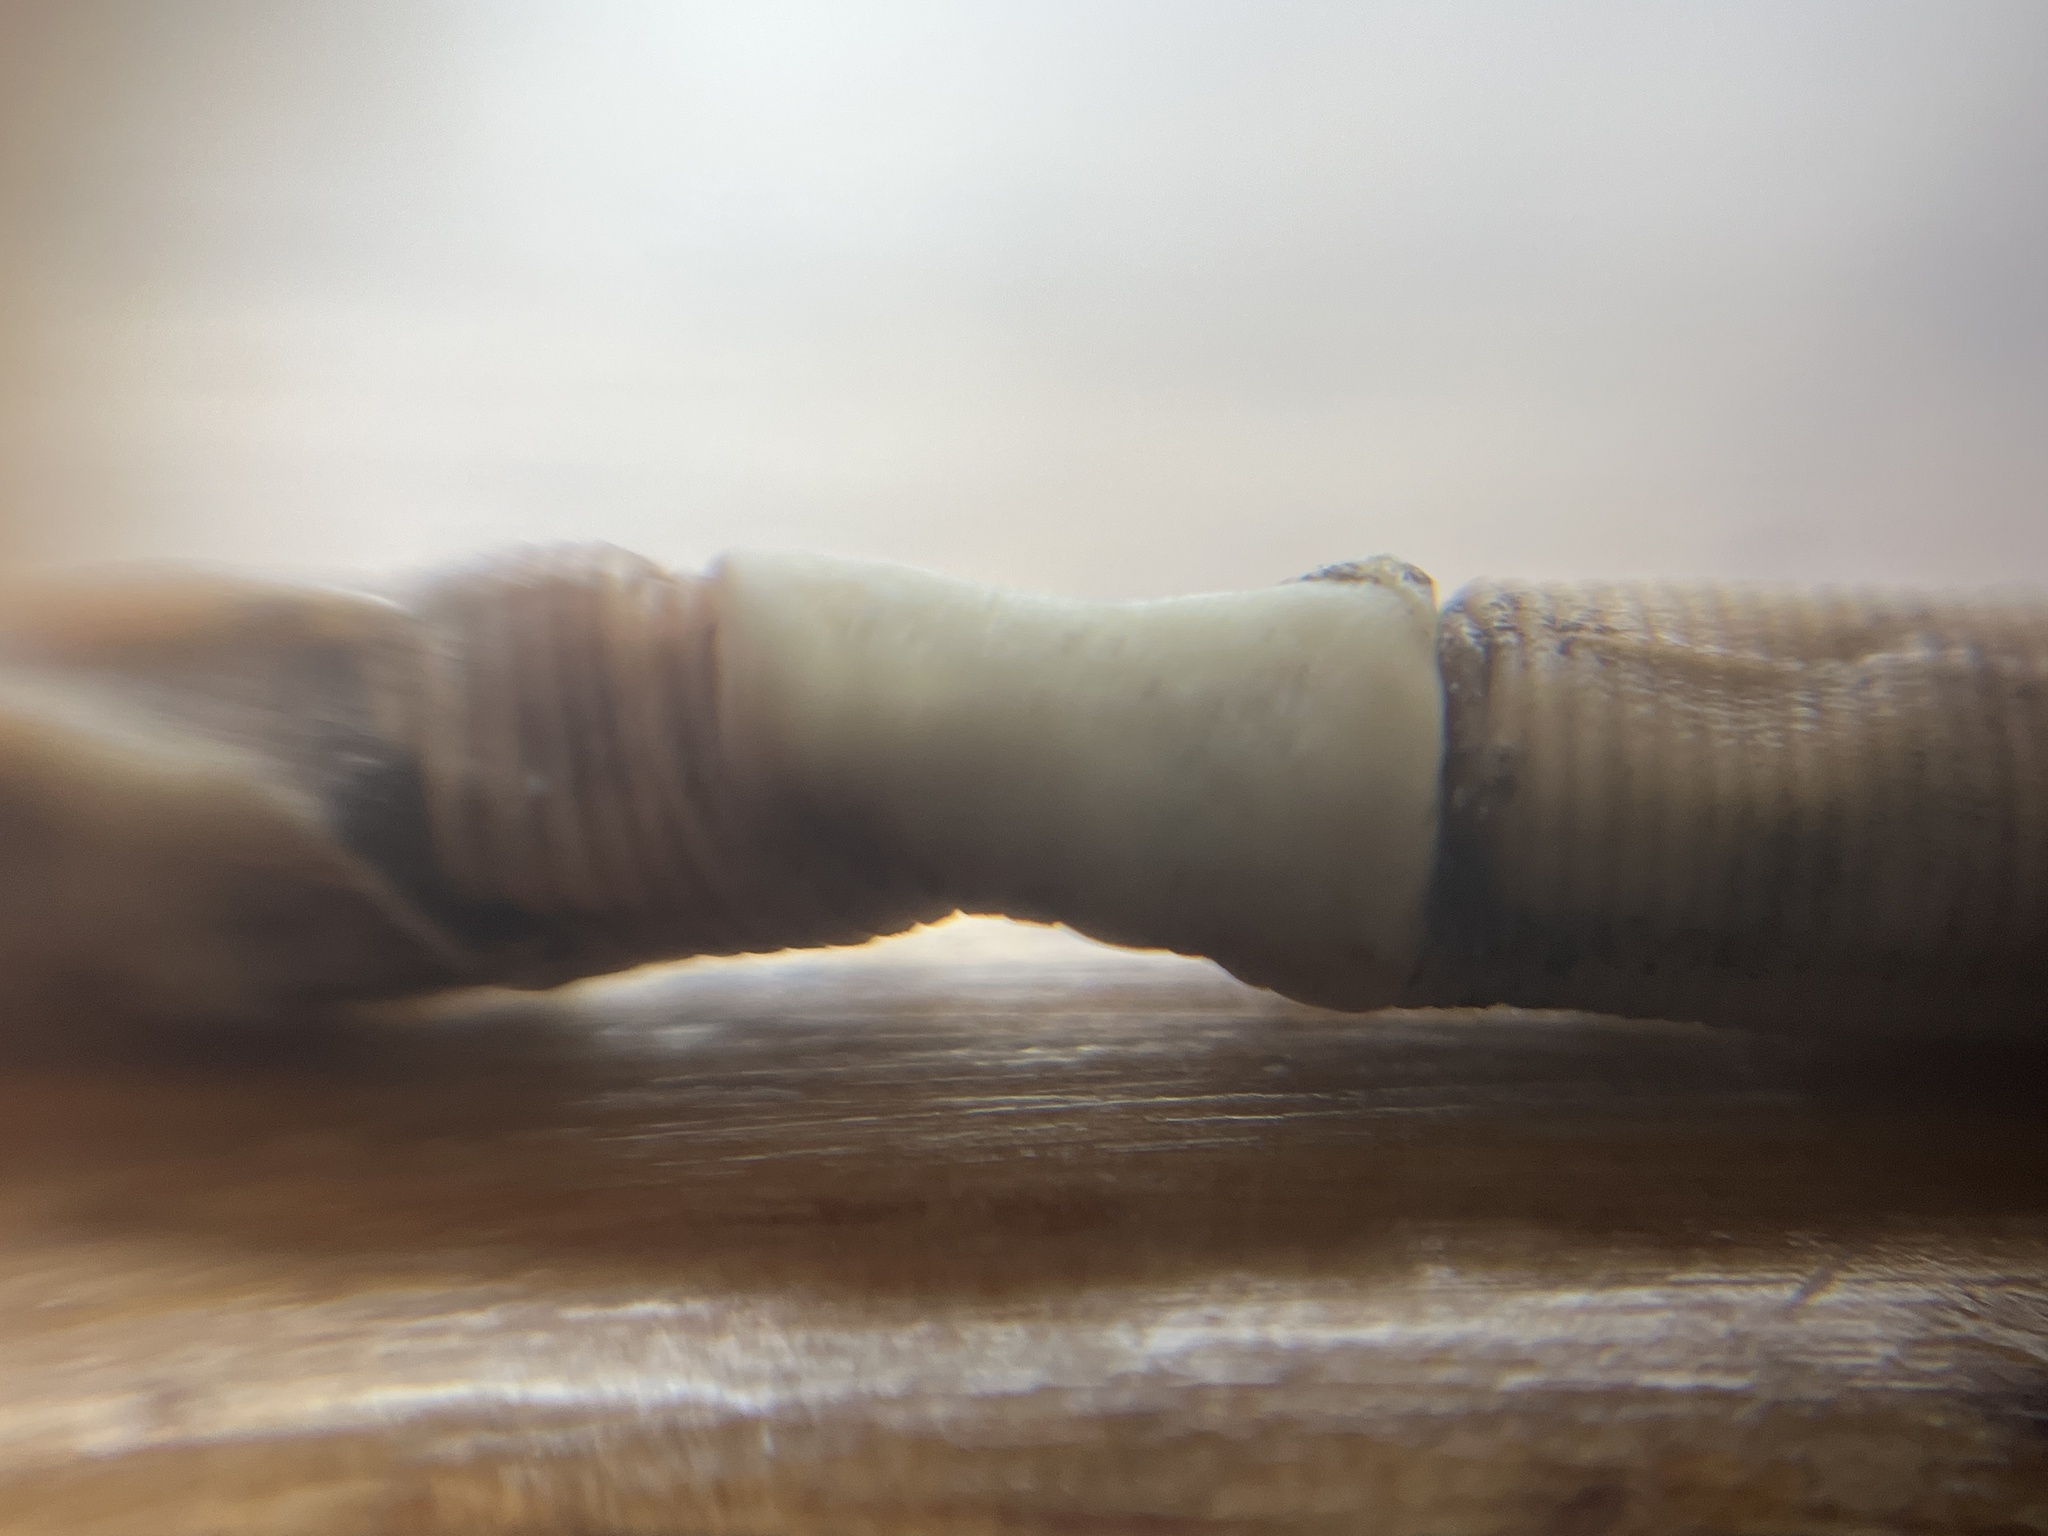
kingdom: Animalia
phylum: Annelida
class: Clitellata
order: Crassiclitellata
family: Lumbricidae
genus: Lumbricus
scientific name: Lumbricus rubellus
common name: Red worm
